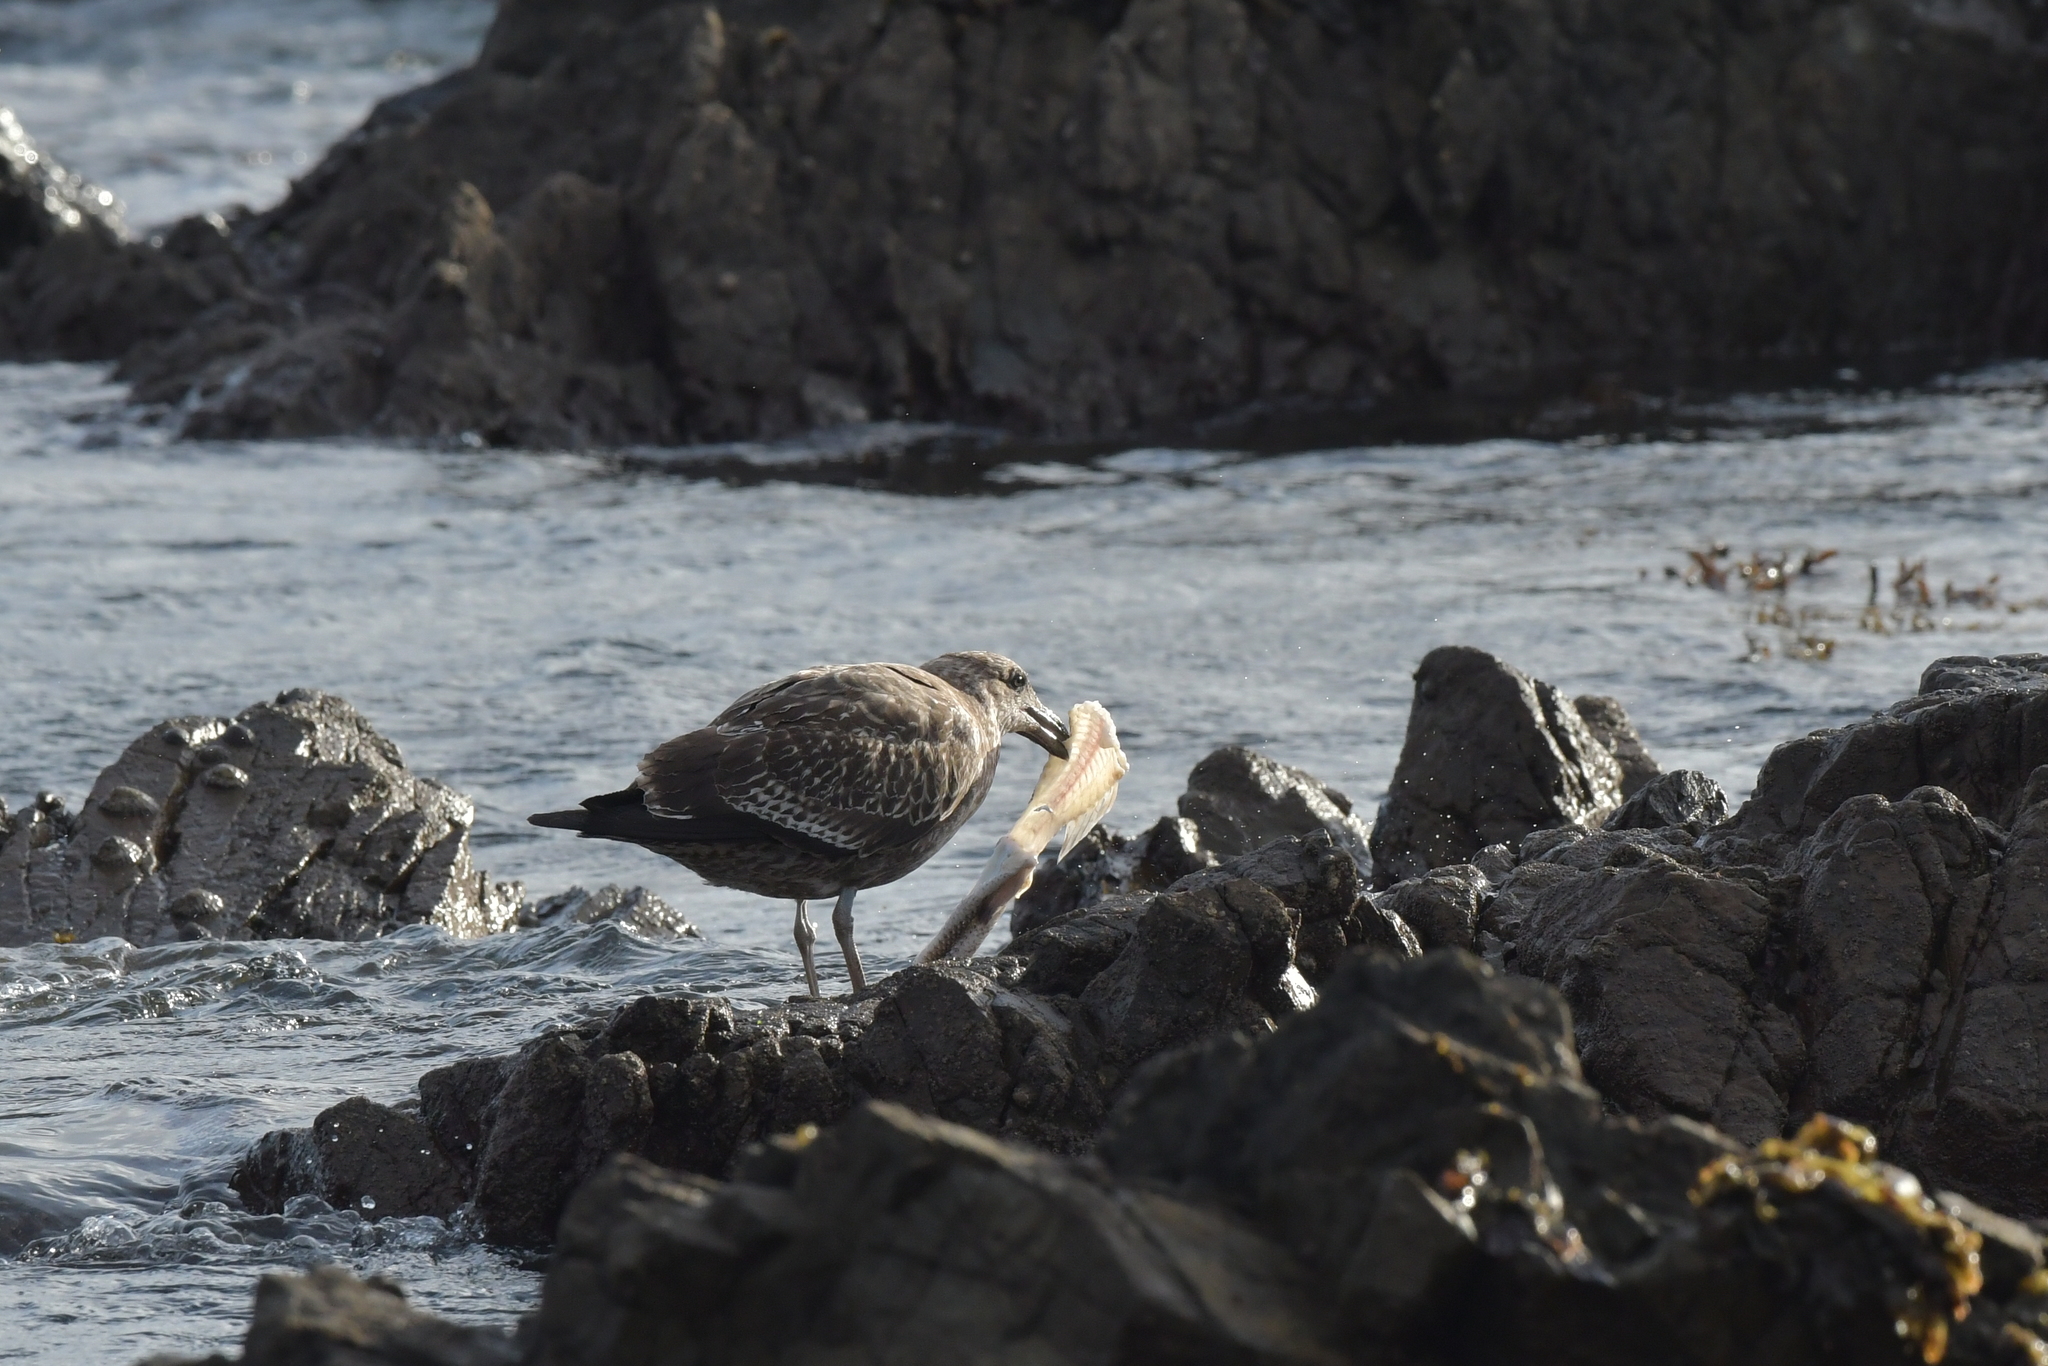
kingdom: Animalia
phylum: Chordata
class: Aves
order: Charadriiformes
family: Laridae
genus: Larus
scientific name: Larus dominicanus
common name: Kelp gull
